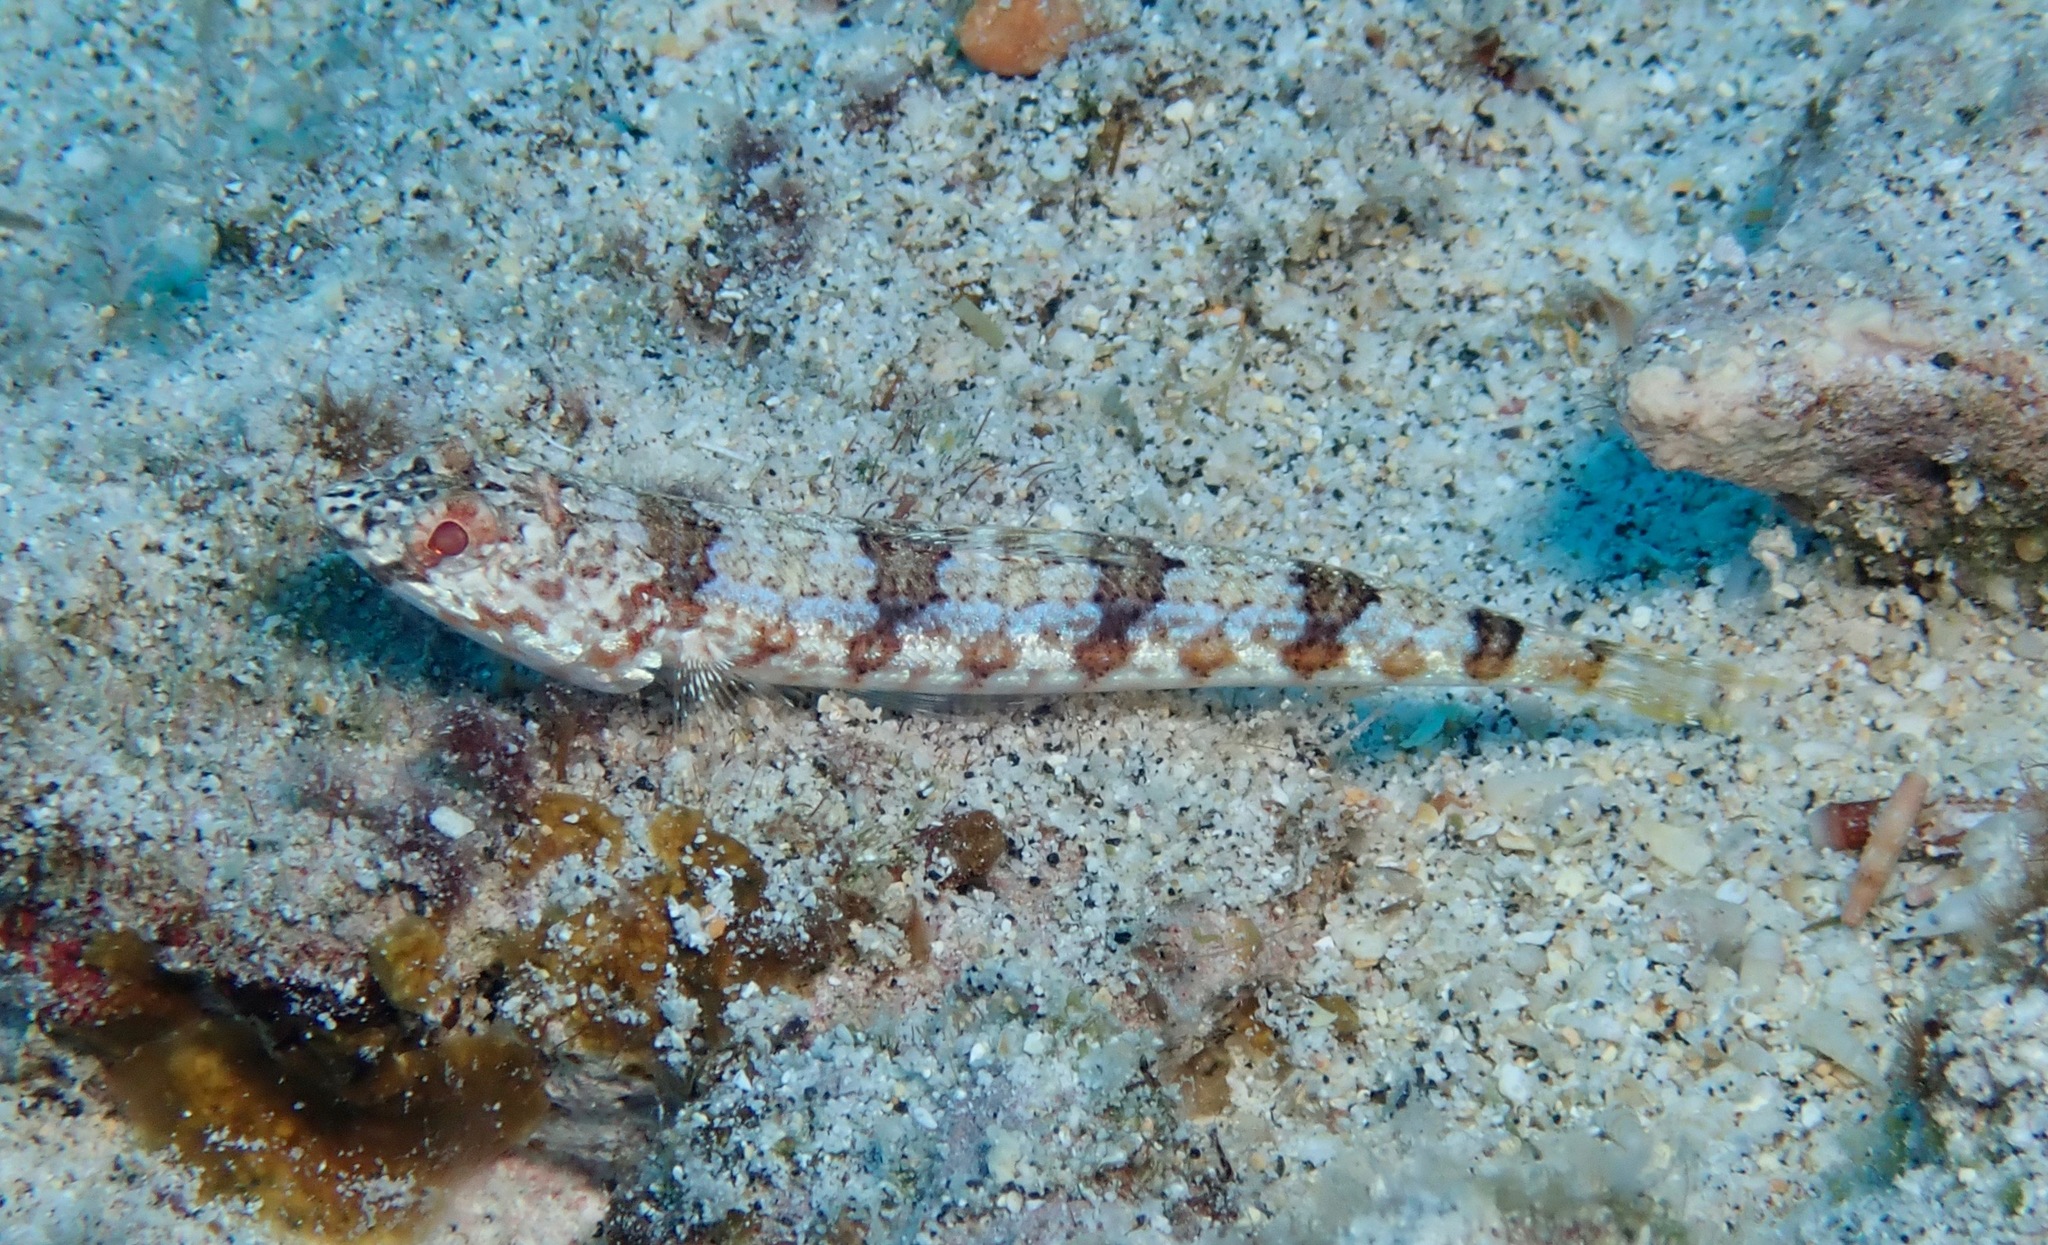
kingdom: Animalia
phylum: Chordata
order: Aulopiformes
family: Synodontidae
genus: Synodus
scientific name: Synodus dermatogenys
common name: Banded lizardfish
